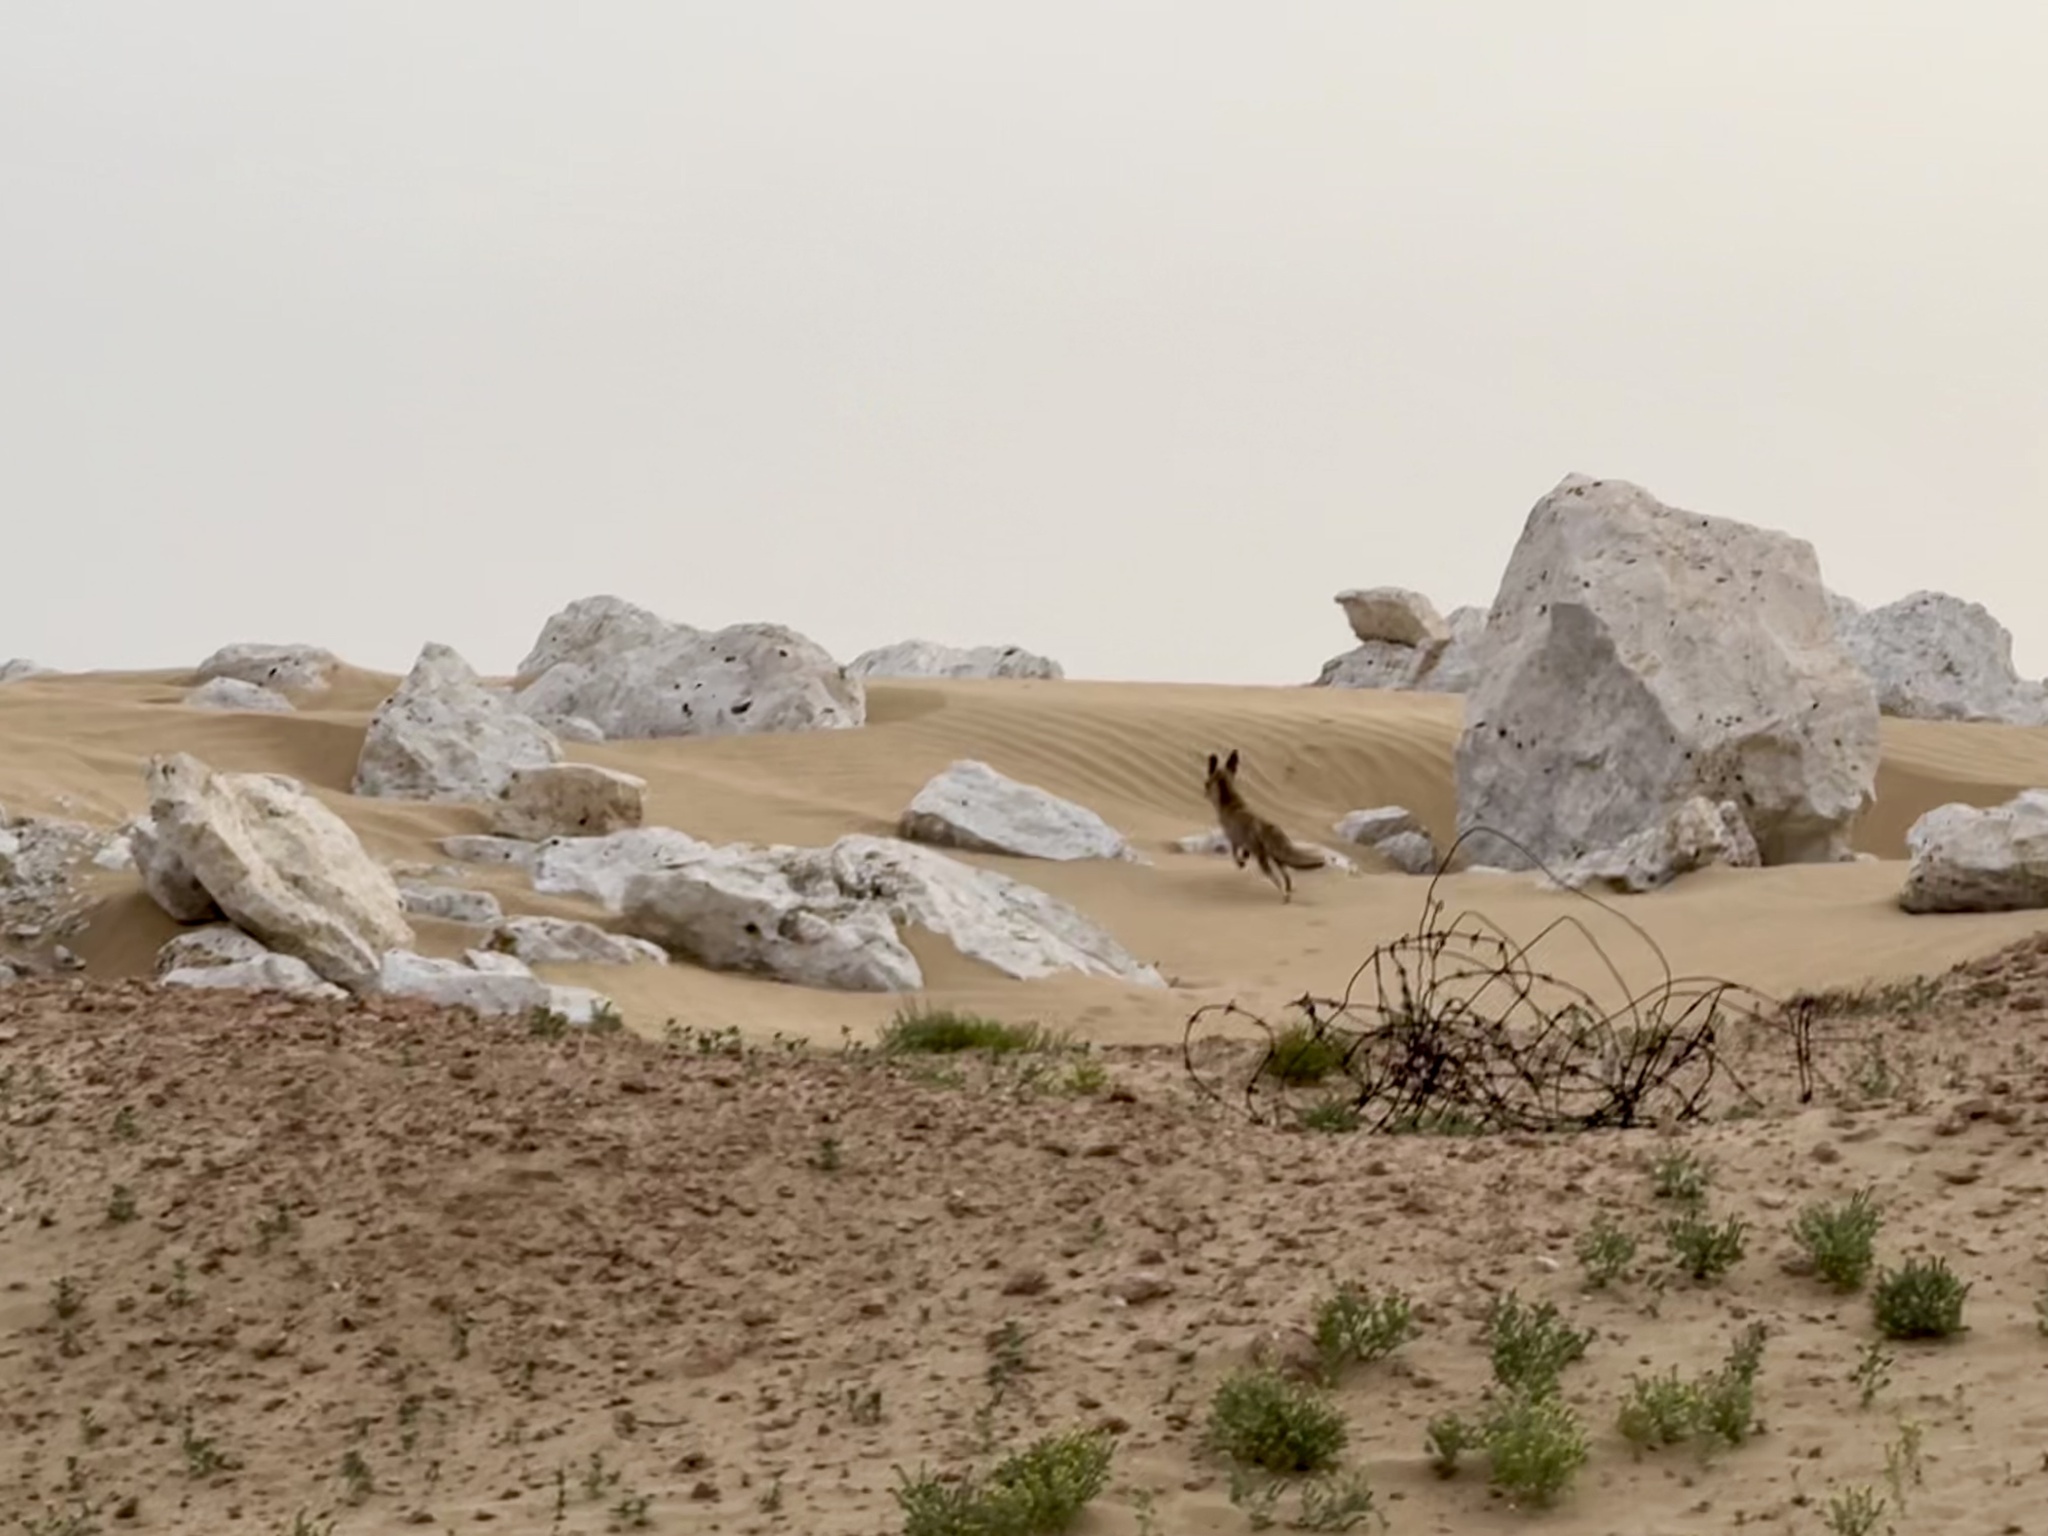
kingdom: Animalia
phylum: Chordata
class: Mammalia
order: Carnivora
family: Canidae
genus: Vulpes
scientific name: Vulpes vulpes
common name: Red fox
